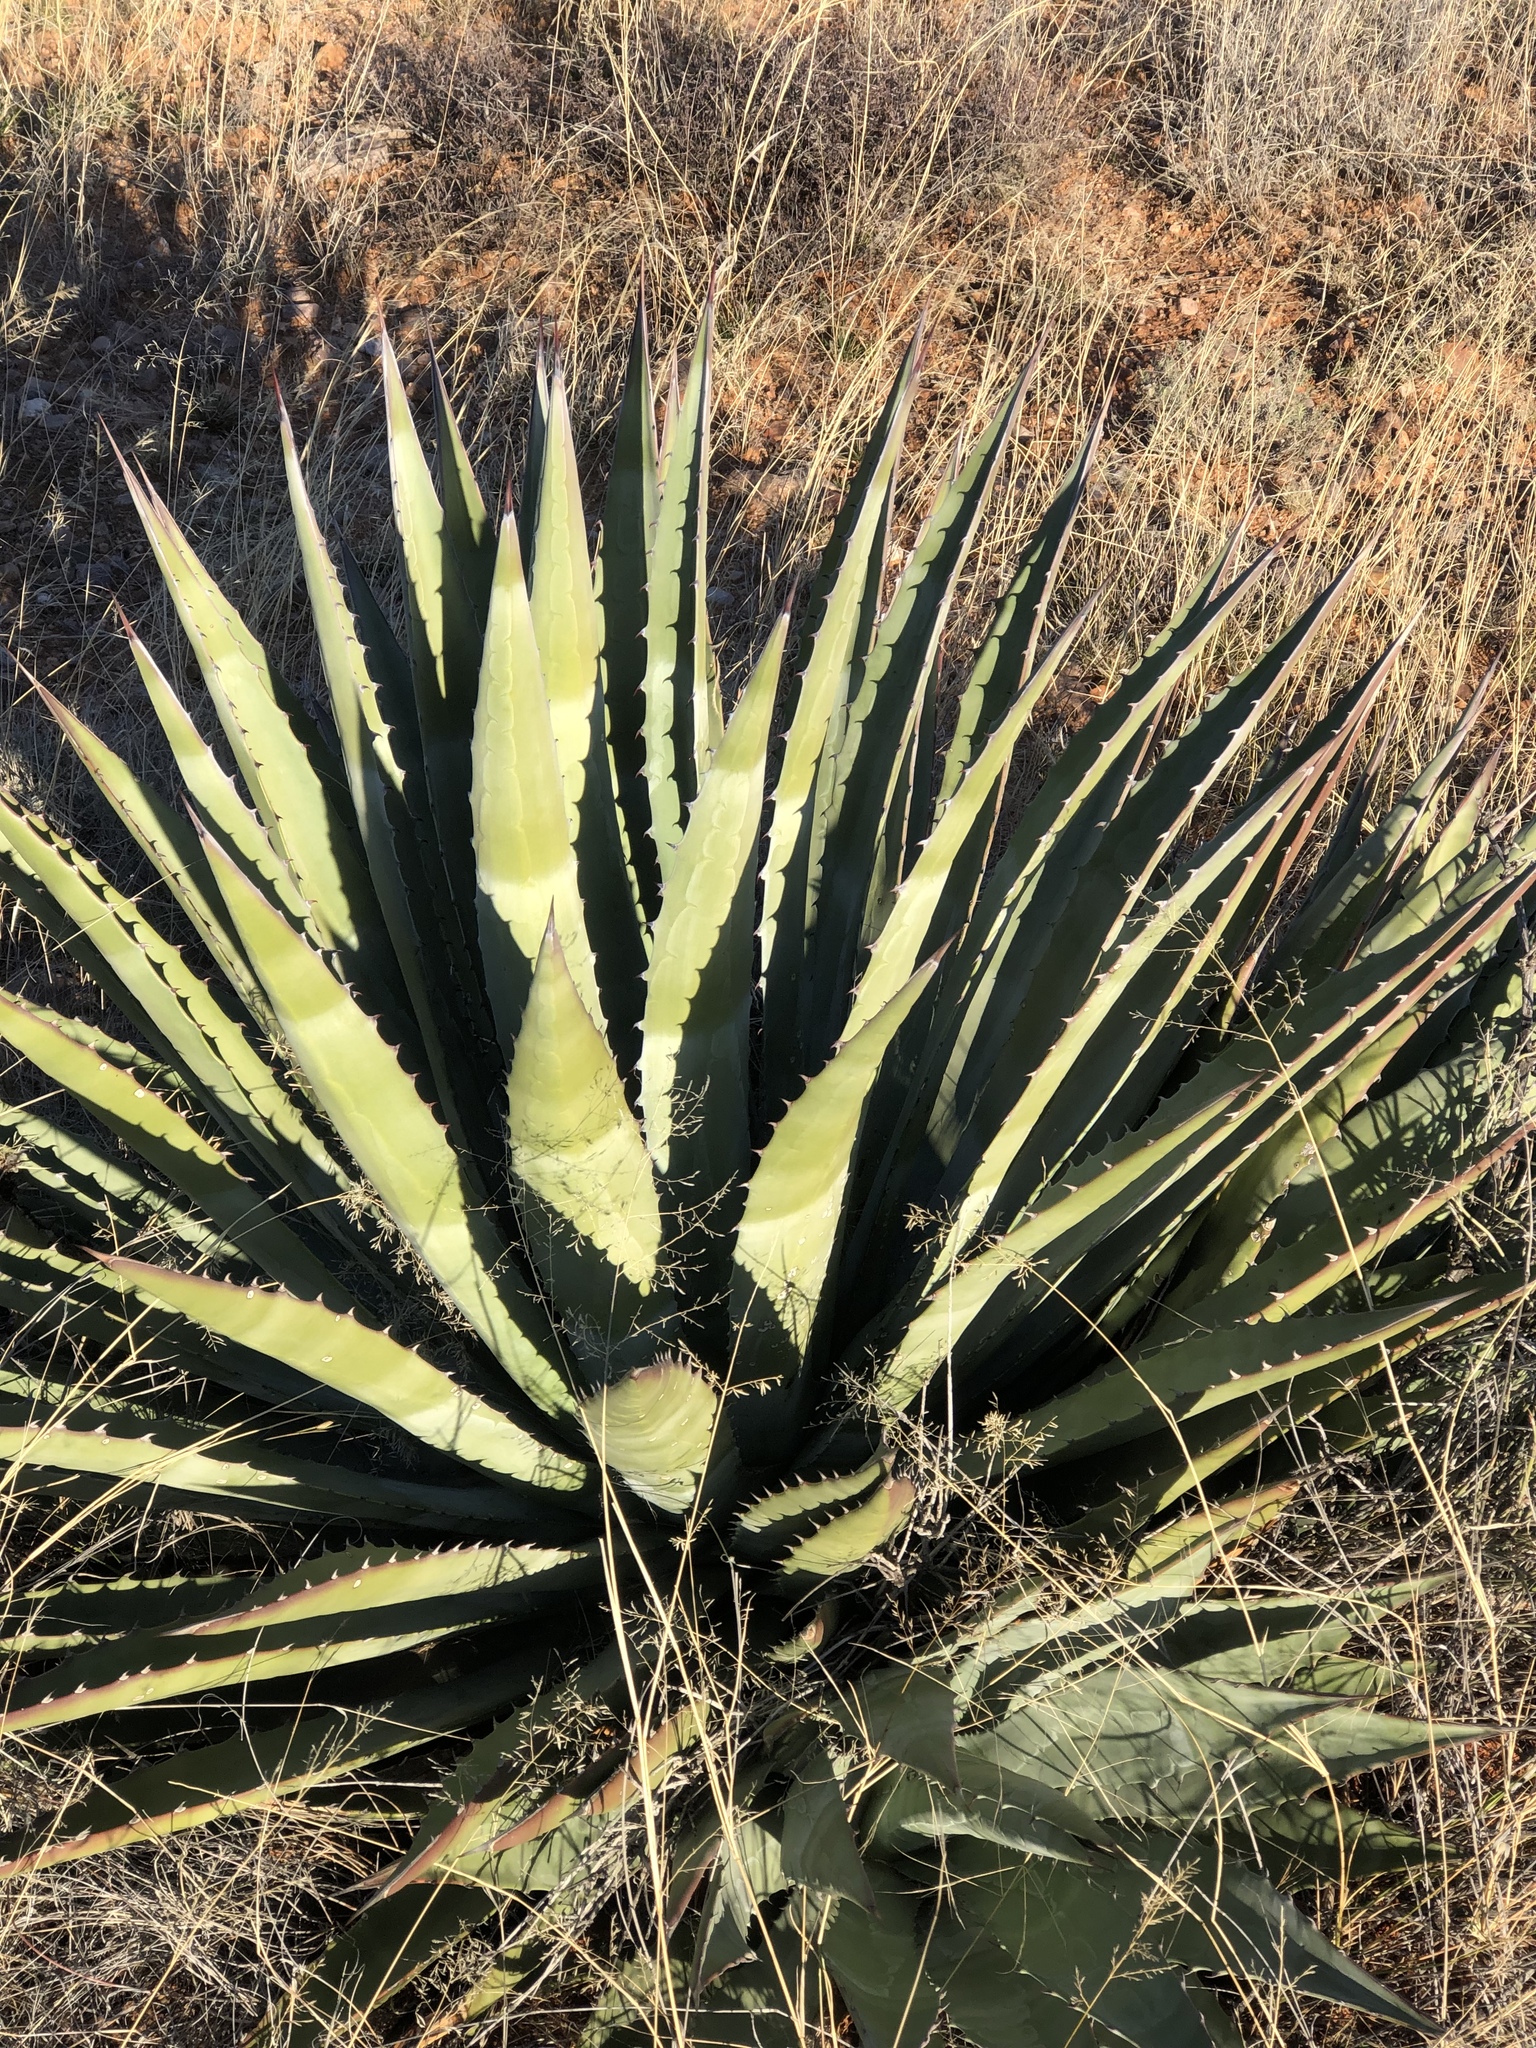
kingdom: Plantae
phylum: Tracheophyta
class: Liliopsida
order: Asparagales
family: Asparagaceae
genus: Agave
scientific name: Agave palmeri
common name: Palmer agave
